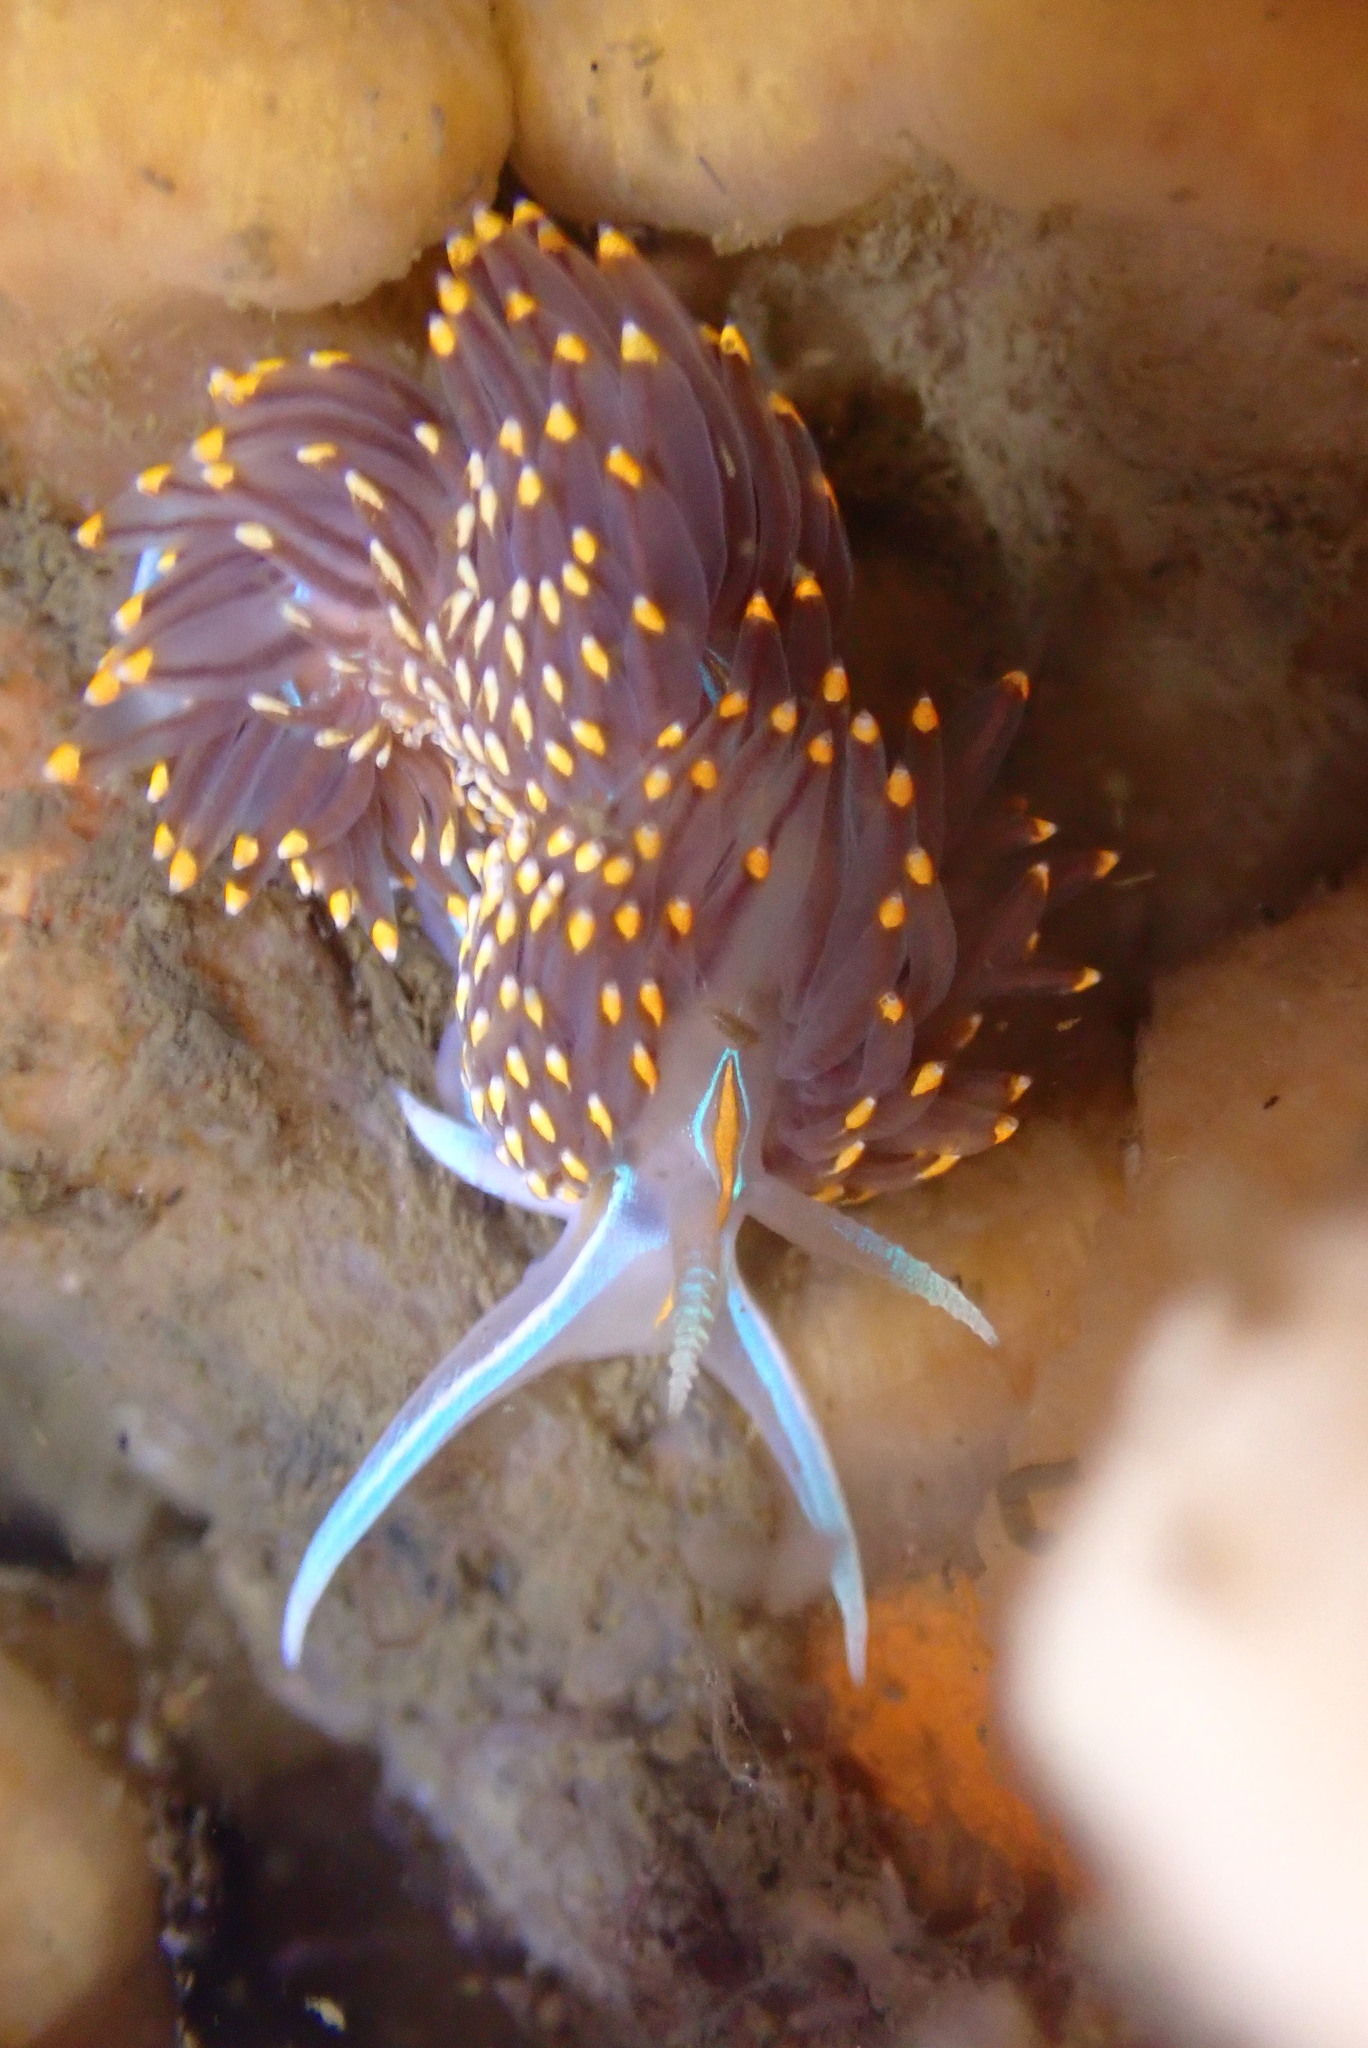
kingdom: Animalia
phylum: Mollusca
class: Gastropoda
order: Nudibranchia
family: Myrrhinidae
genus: Hermissenda
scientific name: Hermissenda opalescens
